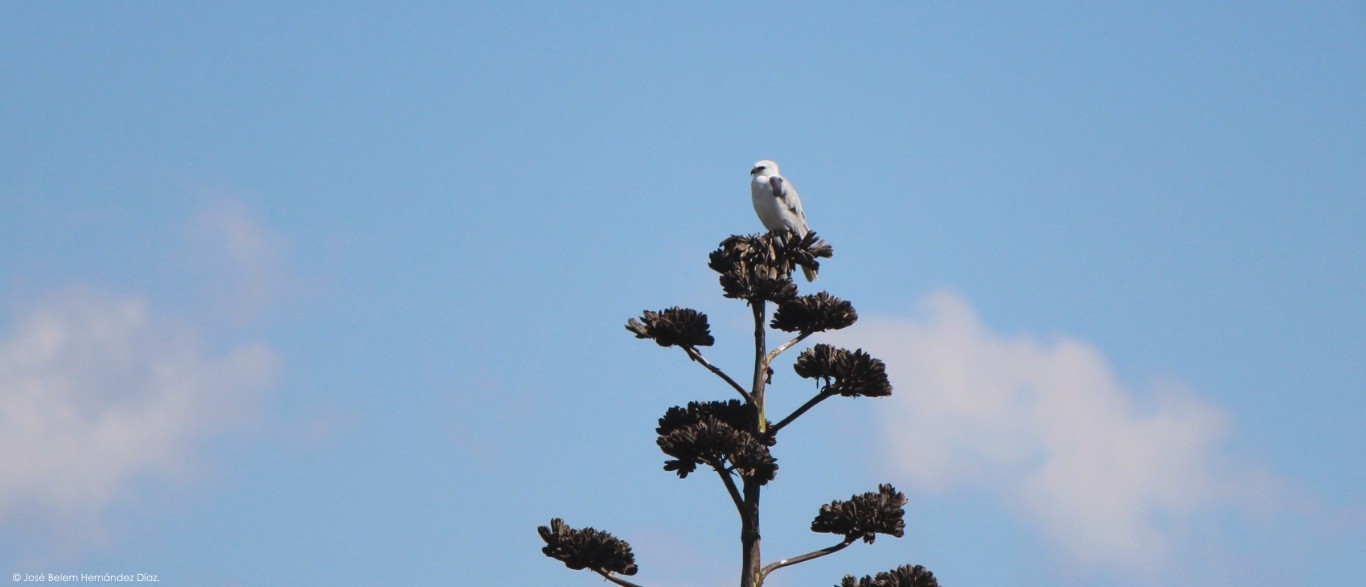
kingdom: Animalia
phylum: Chordata
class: Aves
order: Accipitriformes
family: Accipitridae
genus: Elanus
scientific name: Elanus leucurus
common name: White-tailed kite
